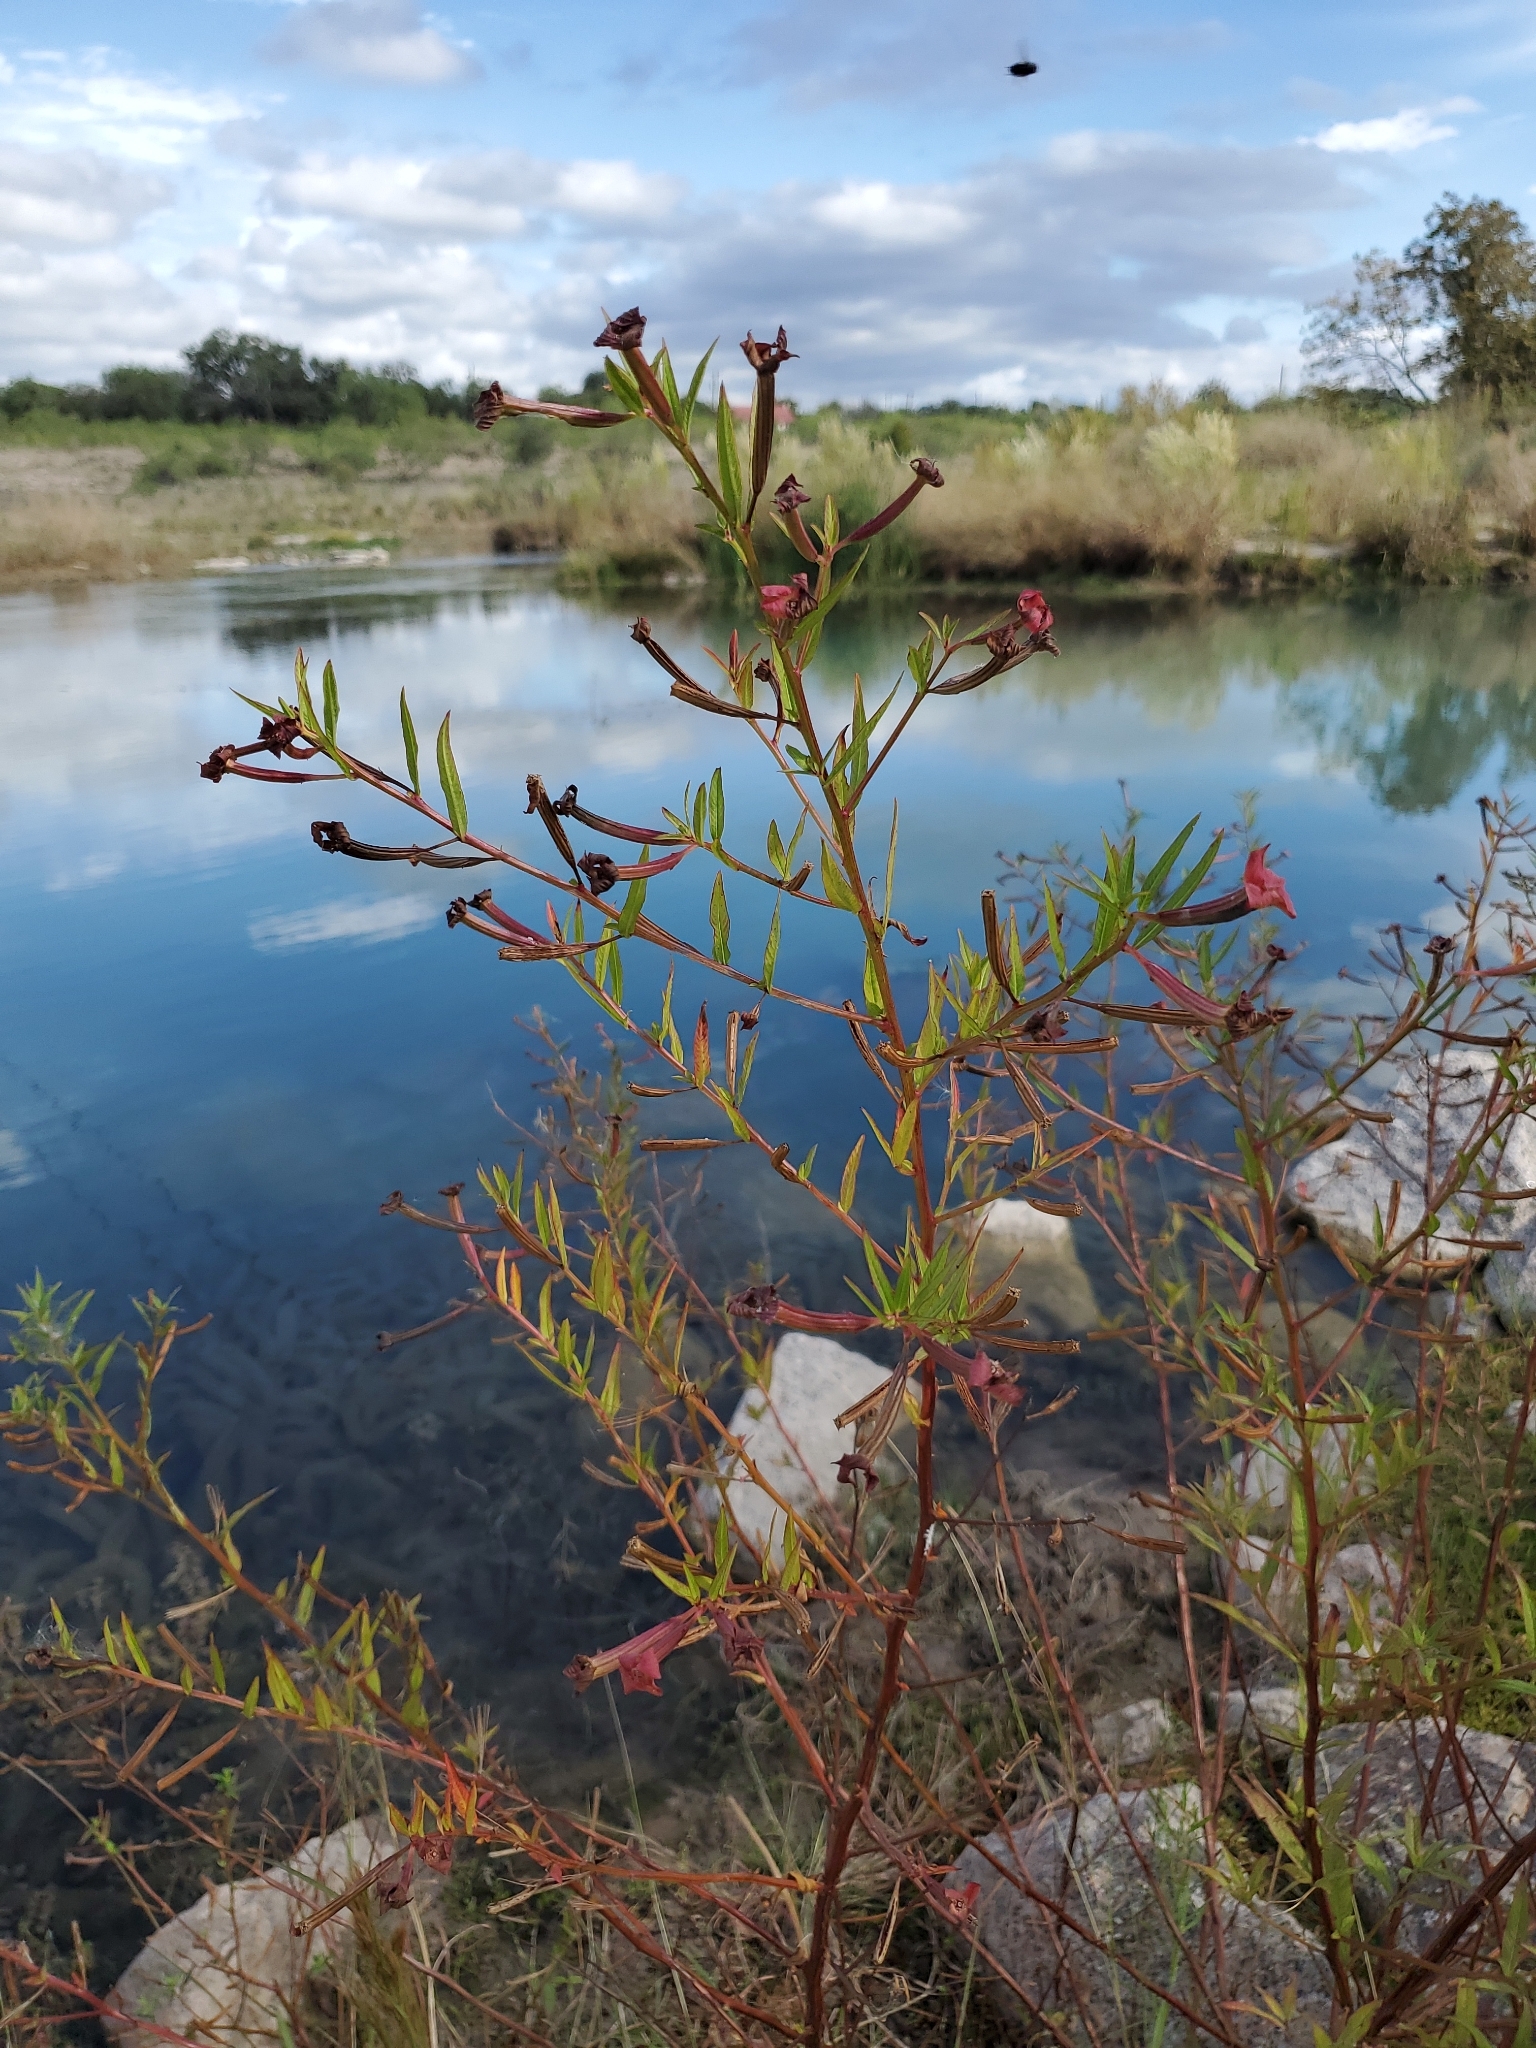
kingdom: Plantae
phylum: Tracheophyta
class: Magnoliopsida
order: Myrtales
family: Onagraceae
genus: Ludwigia
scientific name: Ludwigia octovalvis
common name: Water-primrose
